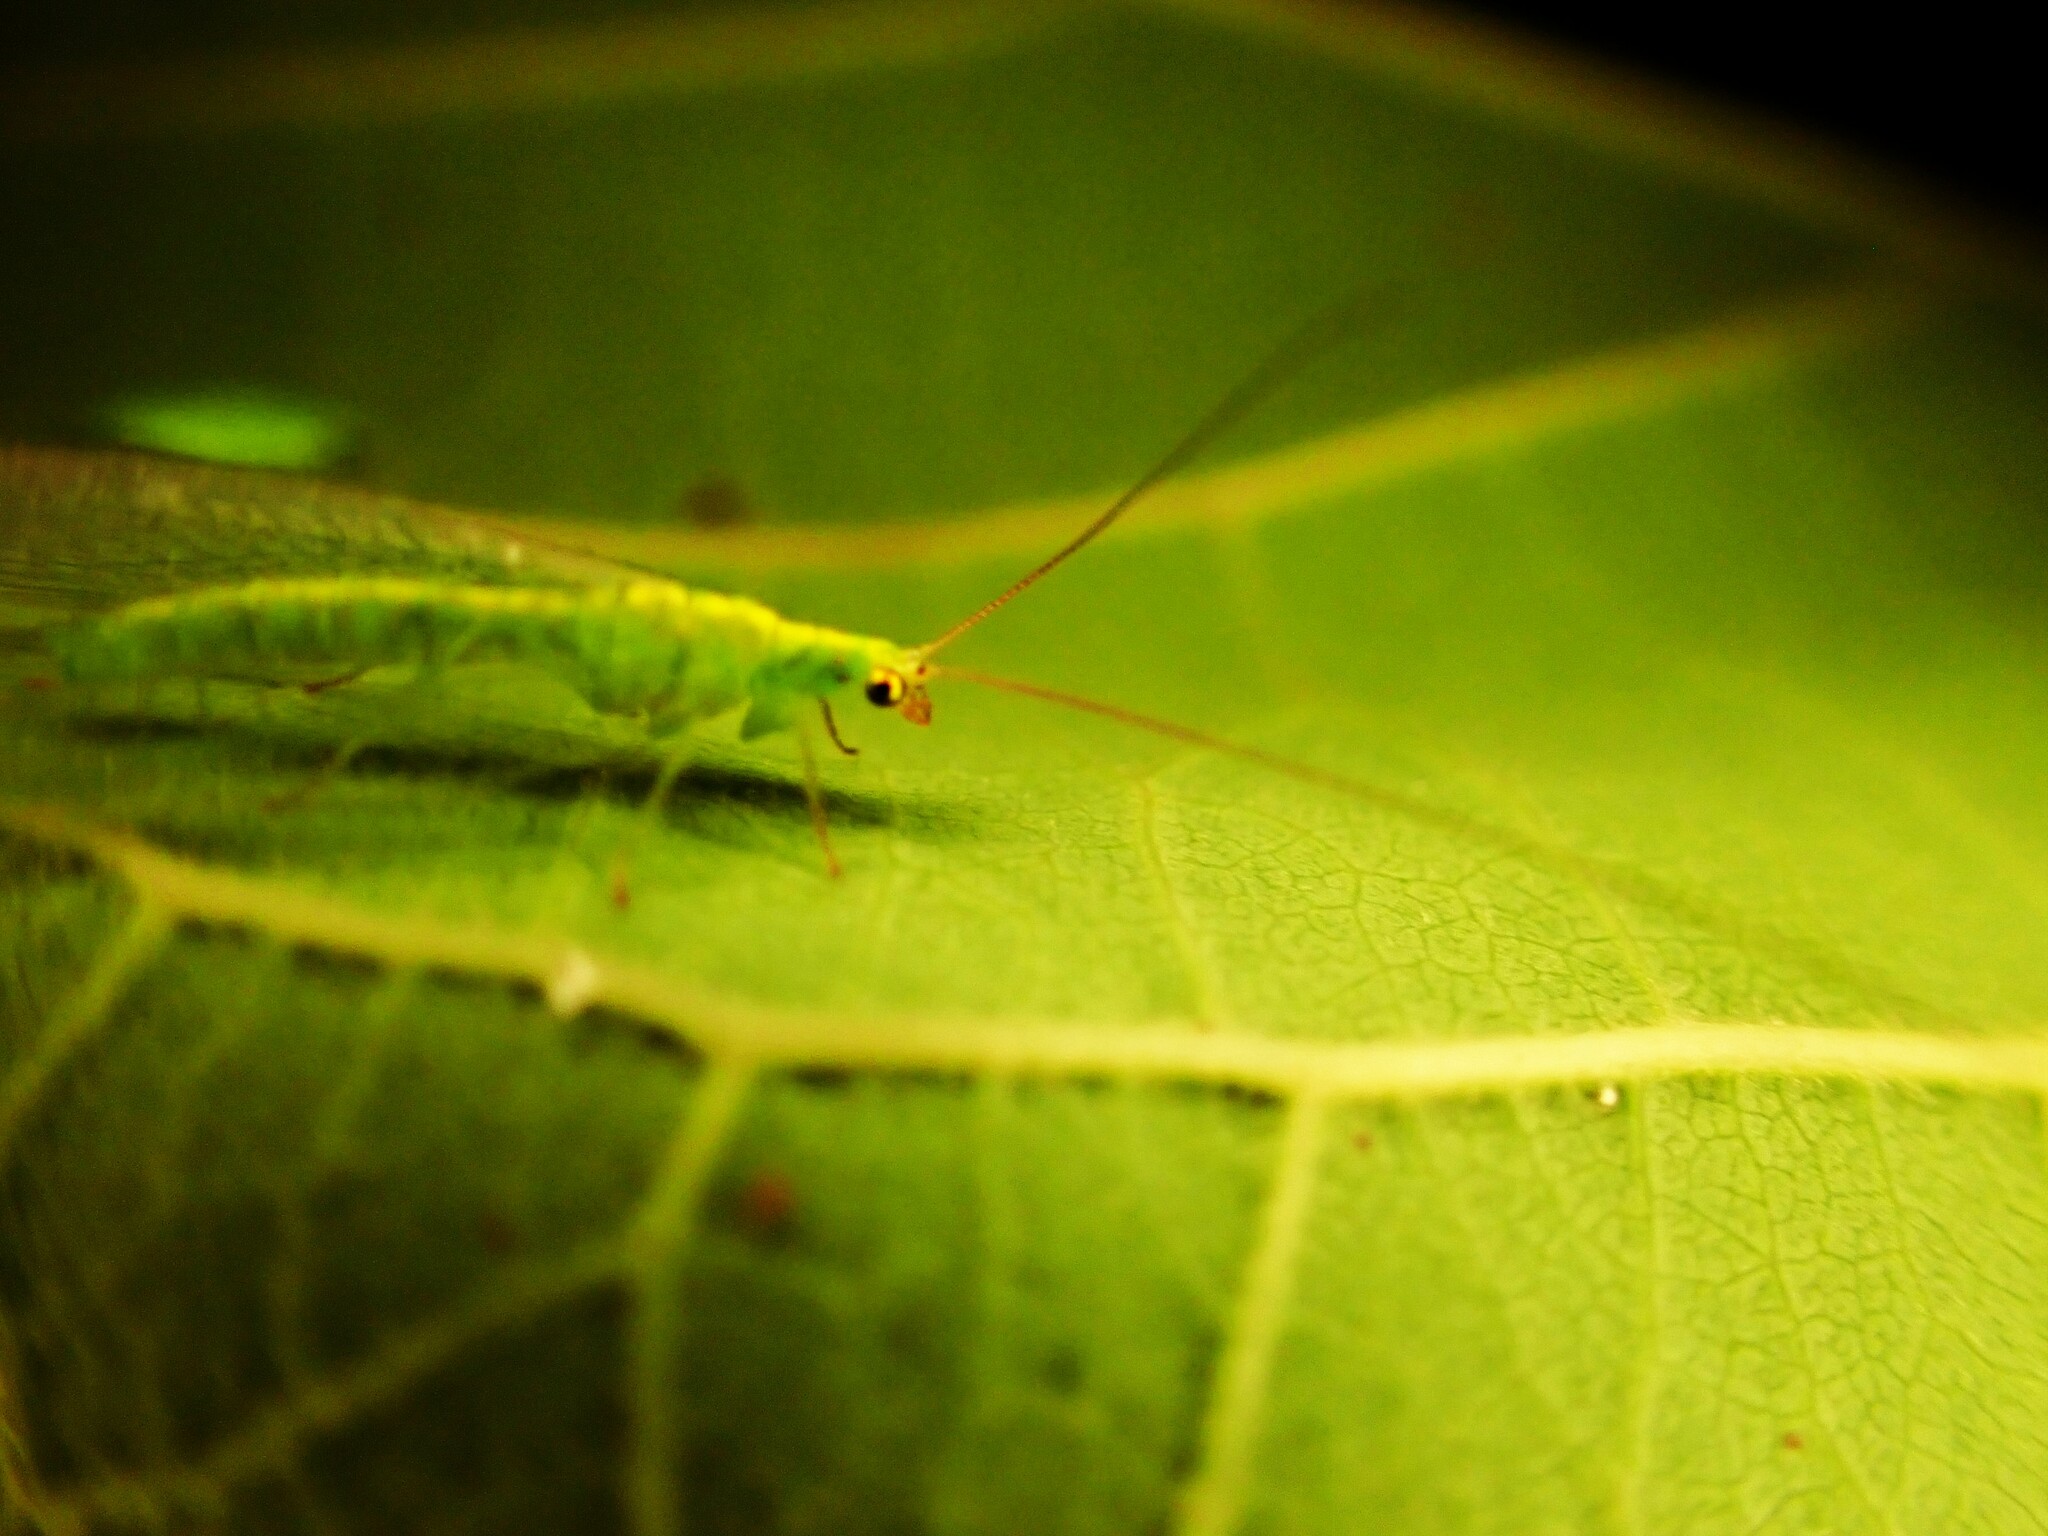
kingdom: Animalia
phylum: Arthropoda
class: Insecta
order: Neuroptera
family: Chrysopidae
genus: Mallada
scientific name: Mallada basalis
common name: Green lacewing
